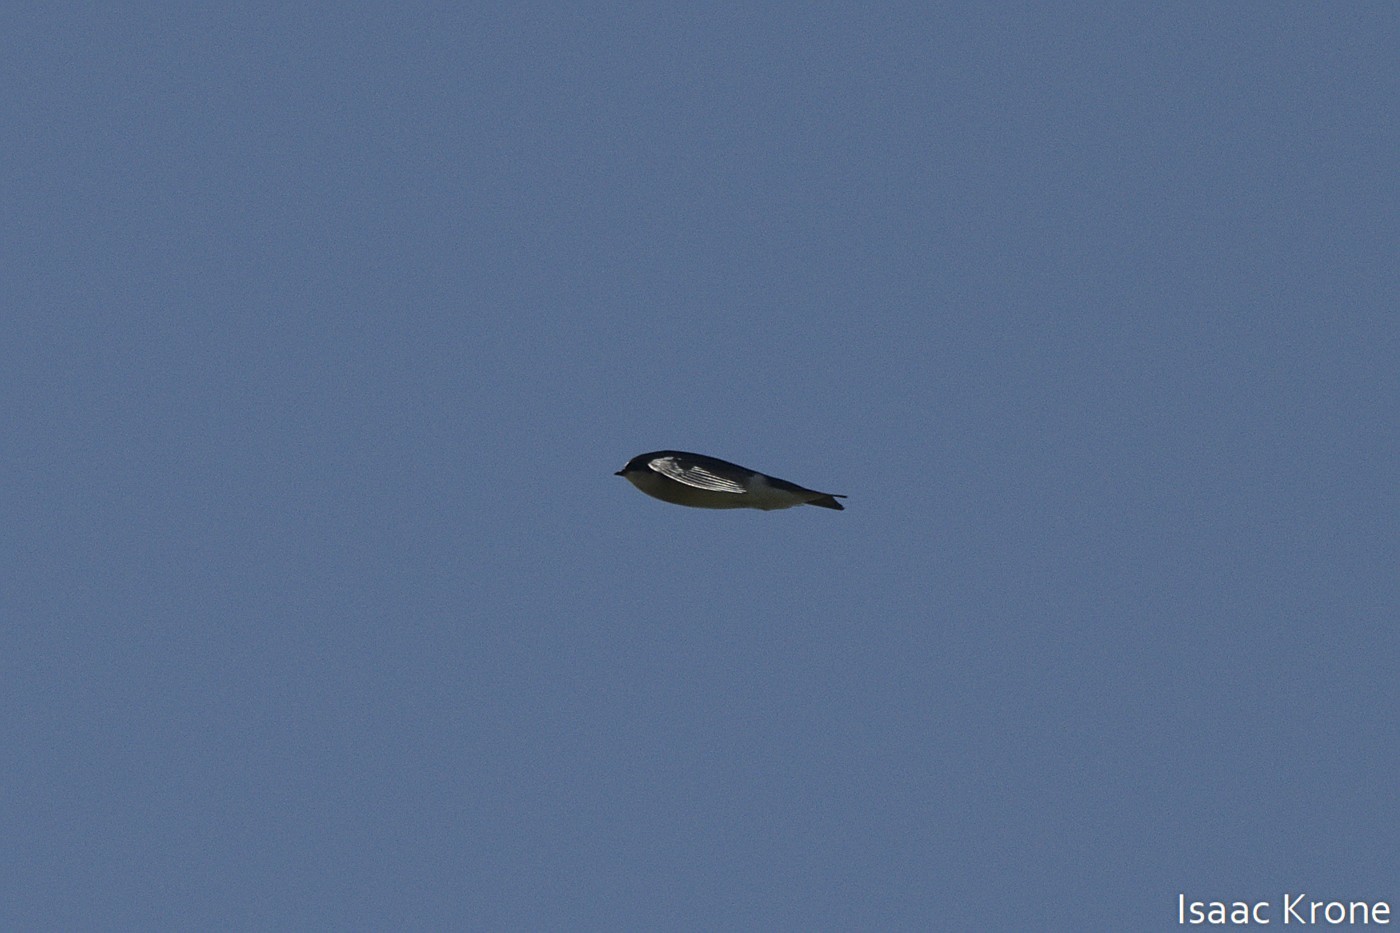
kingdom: Animalia
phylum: Chordata
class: Aves
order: Passeriformes
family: Hirundinidae
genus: Tachycineta
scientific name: Tachycineta thalassina
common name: Violet-green swallow
